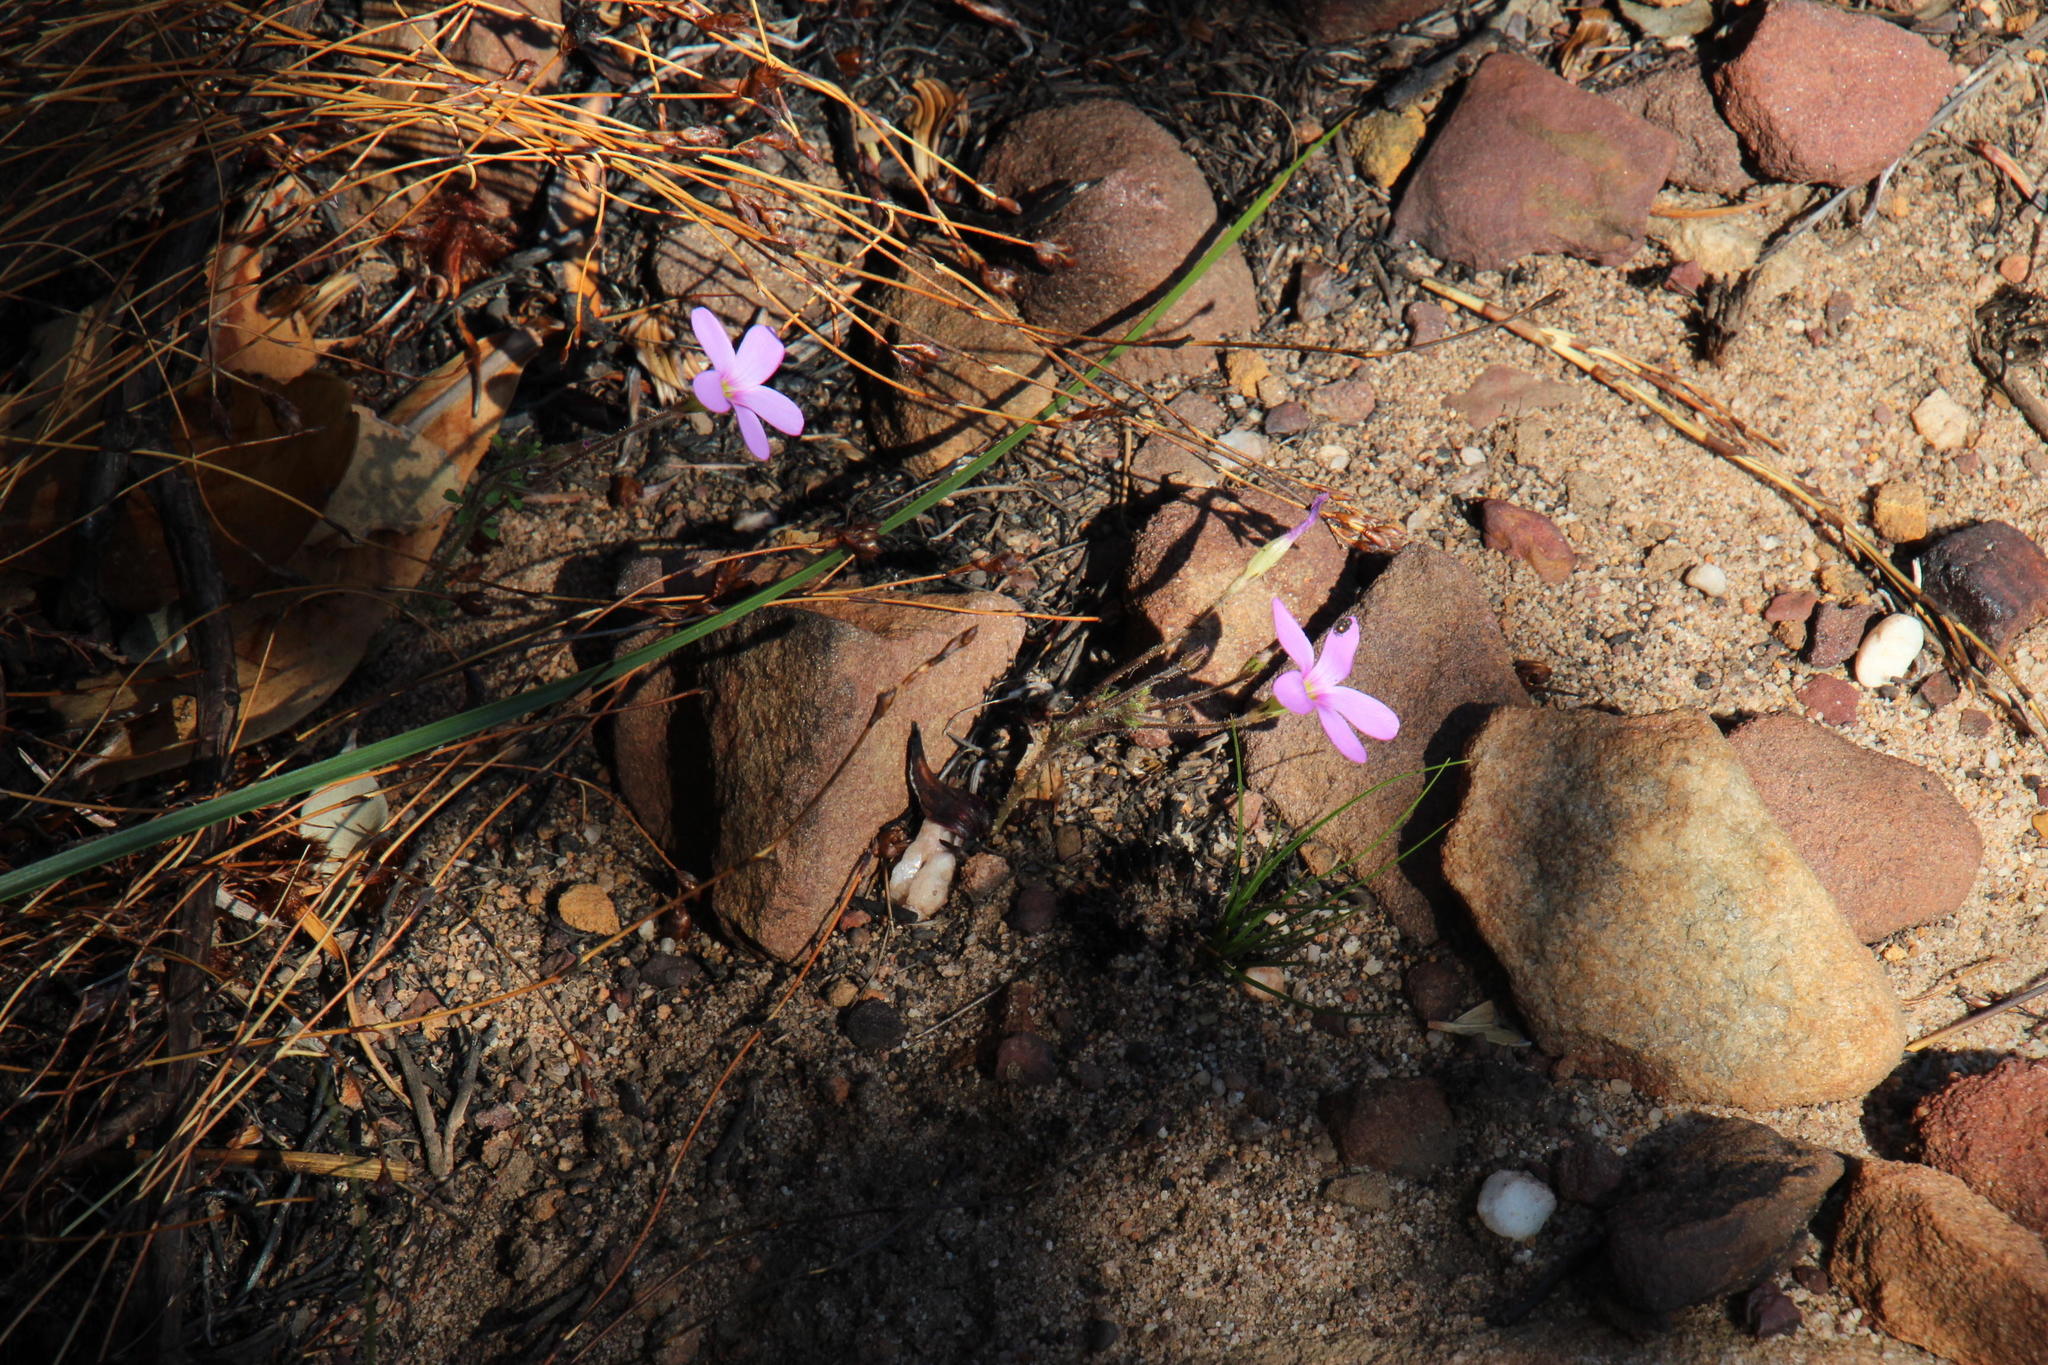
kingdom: Plantae
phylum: Tracheophyta
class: Magnoliopsida
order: Oxalidales
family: Oxalidaceae
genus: Oxalis
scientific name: Oxalis giftbergensis
